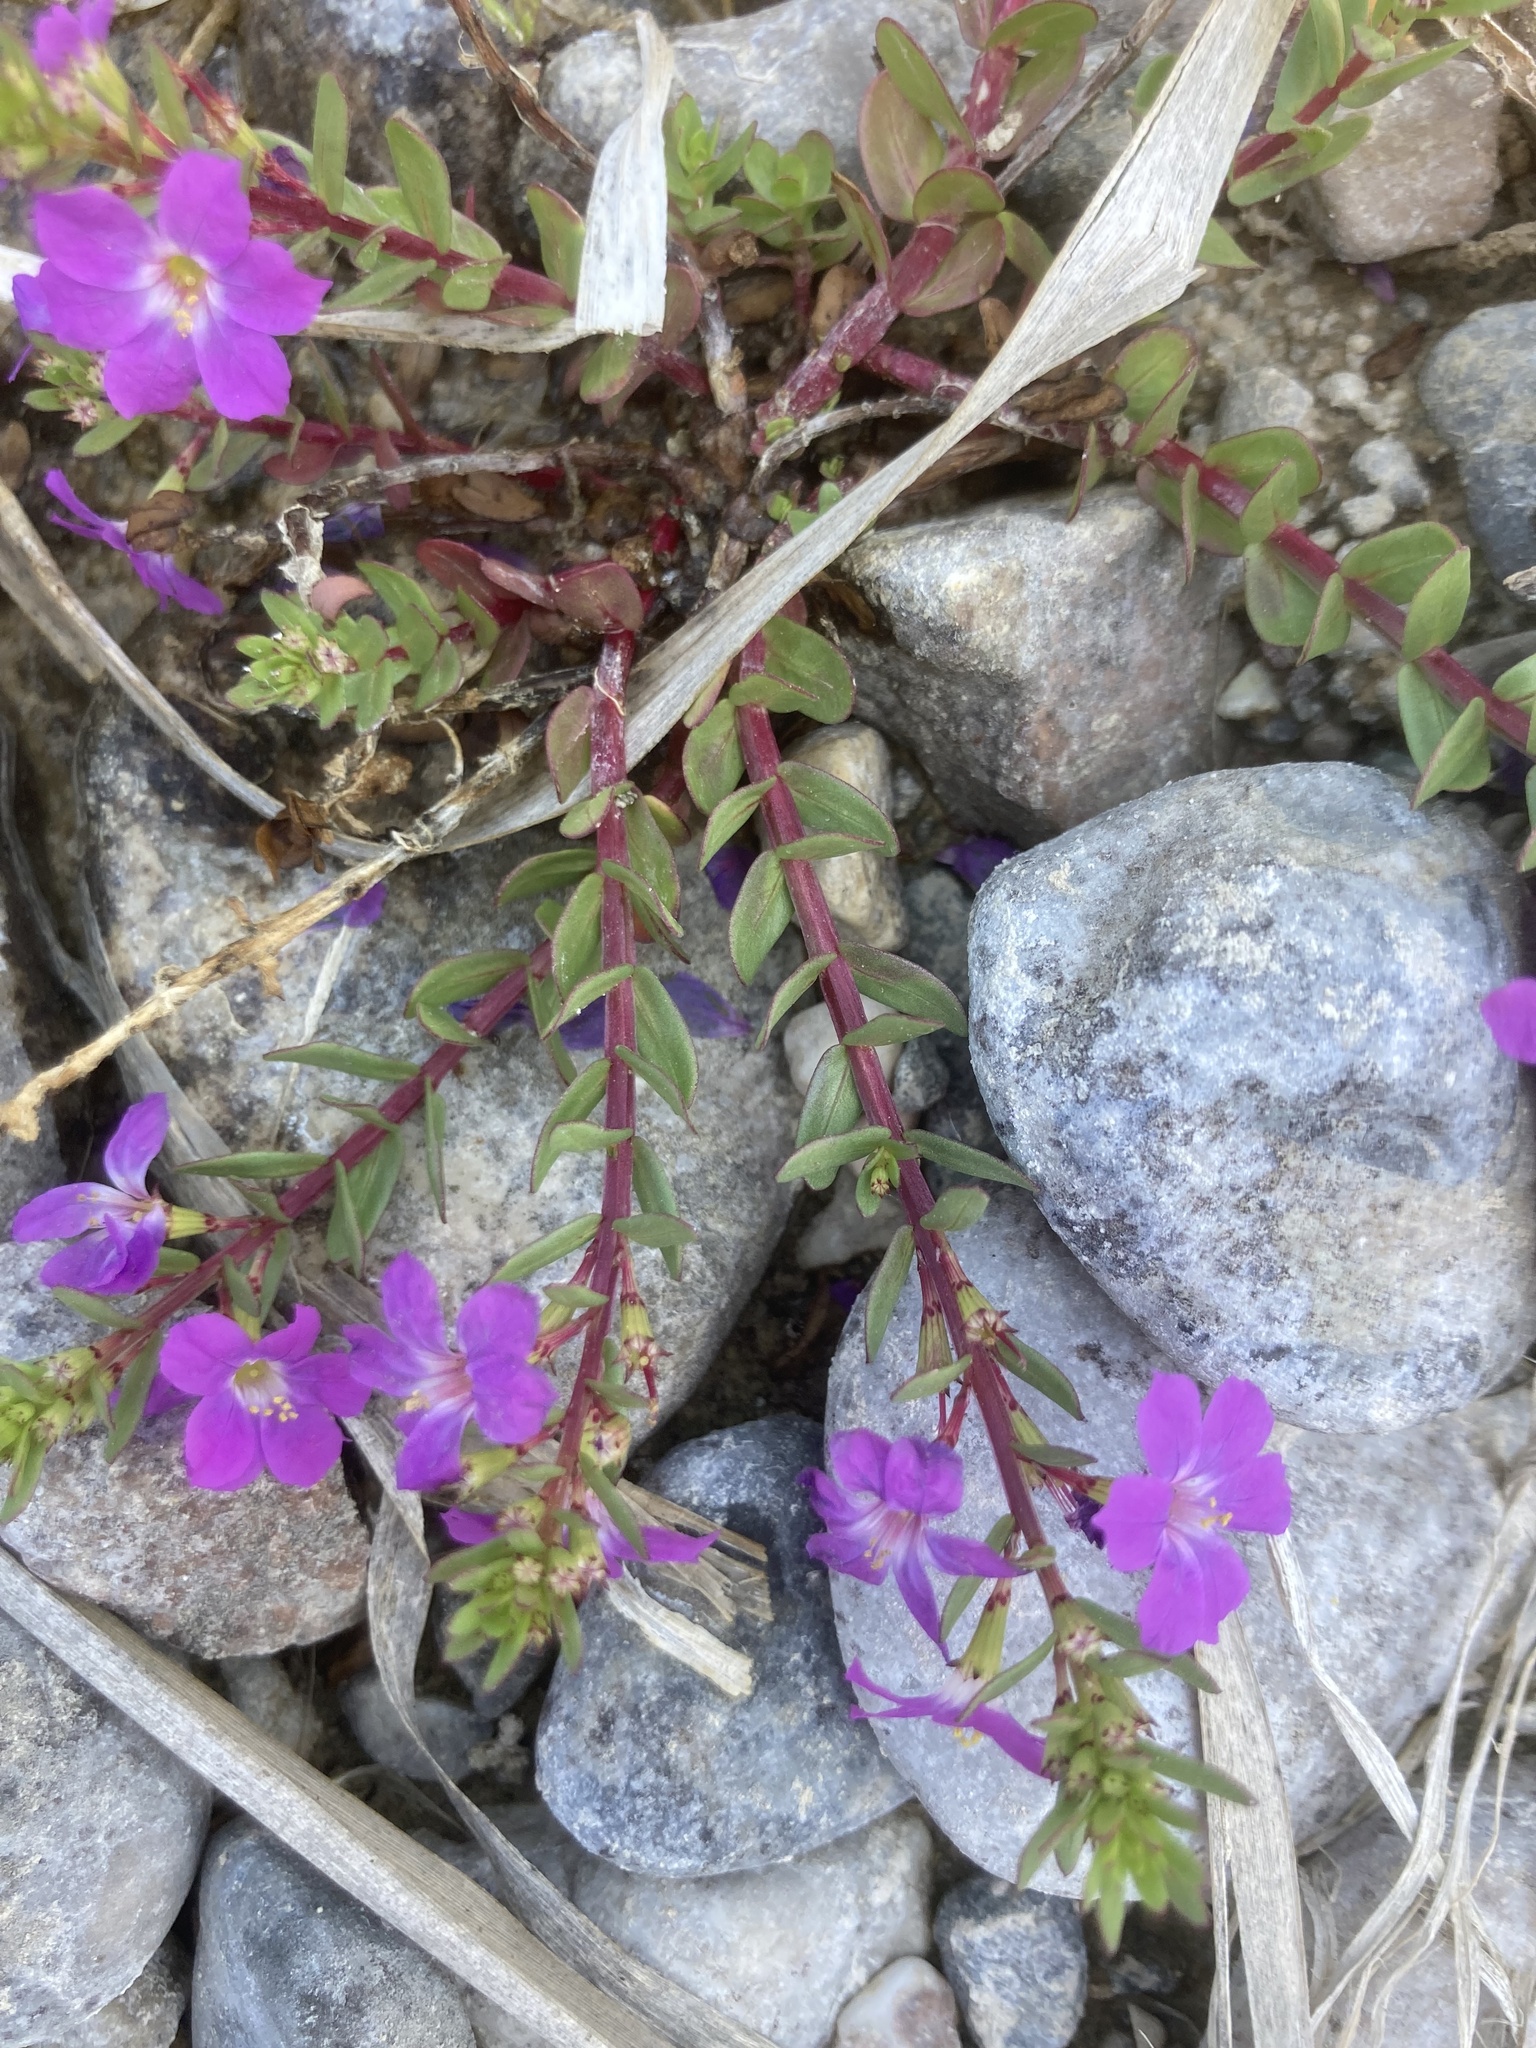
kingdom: Plantae
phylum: Tracheophyta
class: Magnoliopsida
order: Myrtales
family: Lythraceae
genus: Lythrum
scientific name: Lythrum junceum
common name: False grass-poly
